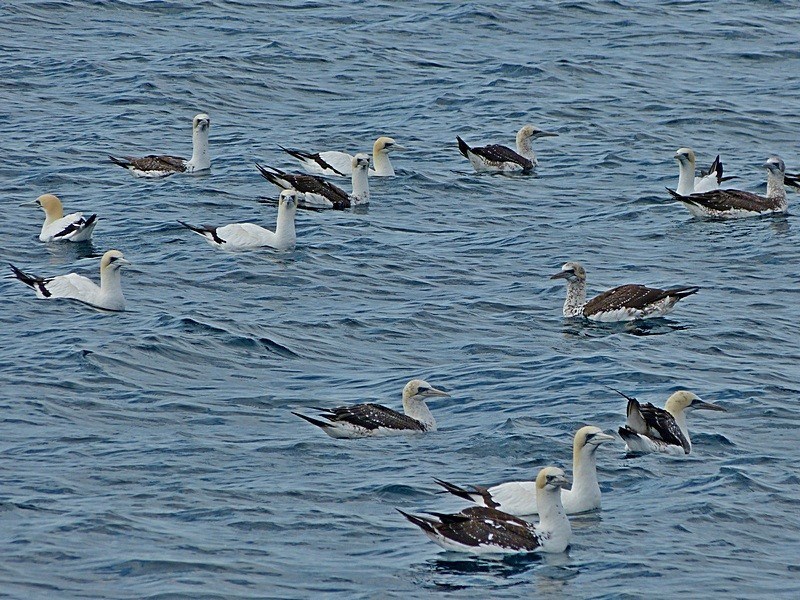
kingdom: Animalia
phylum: Chordata
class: Aves
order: Suliformes
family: Sulidae
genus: Morus
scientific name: Morus serrator
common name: Australasian gannet
